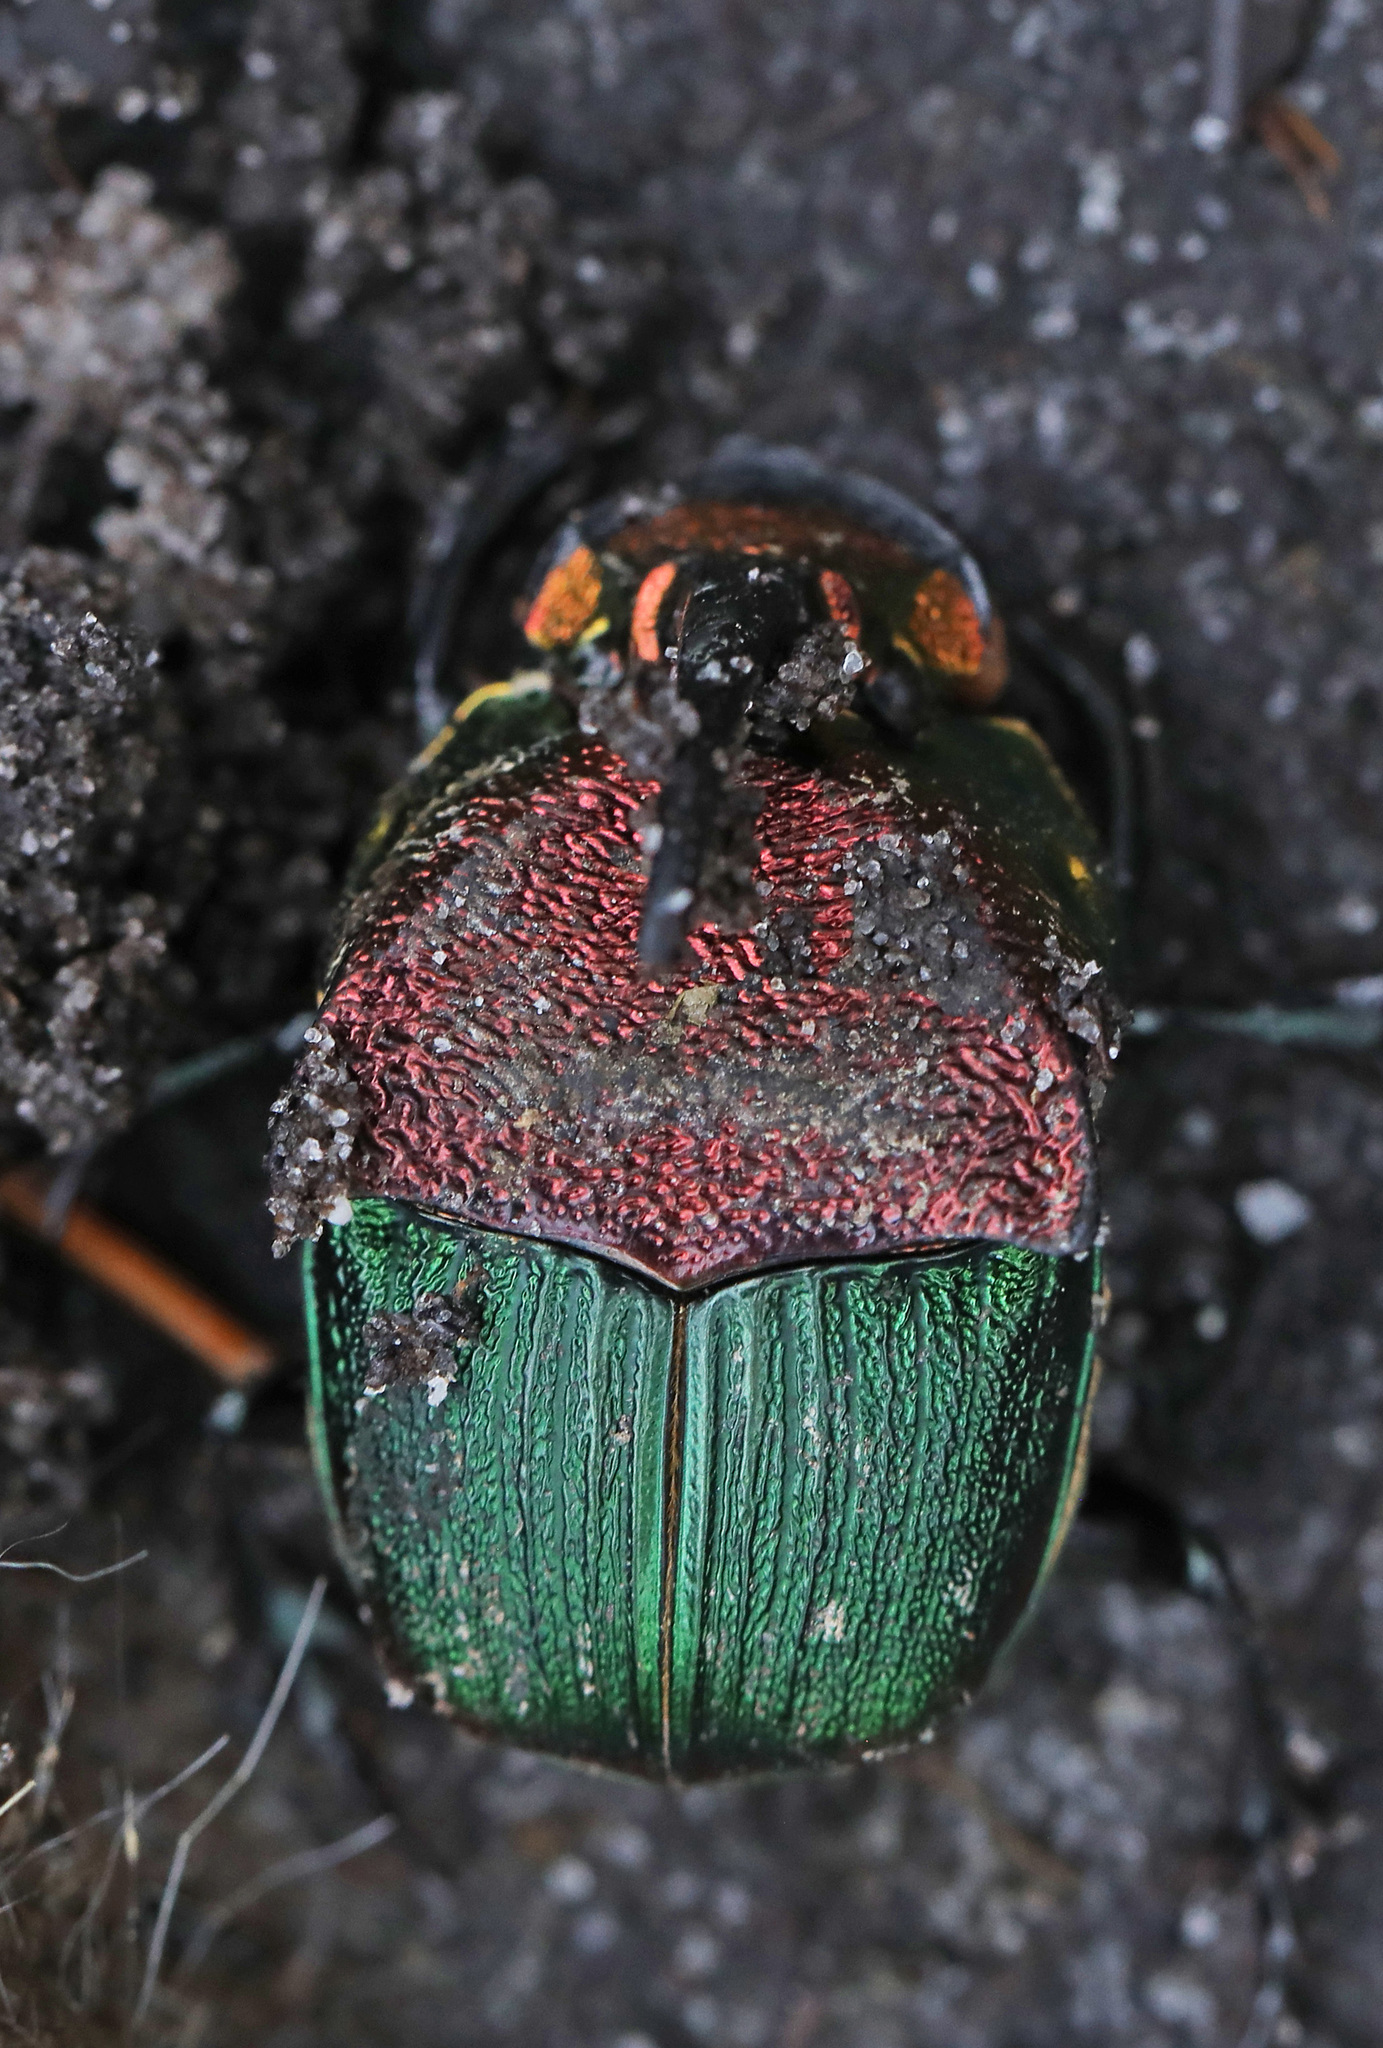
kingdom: Animalia
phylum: Arthropoda
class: Insecta
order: Coleoptera
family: Scarabaeidae
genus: Phanaeus
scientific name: Phanaeus vindex
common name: Rainbow scarab
